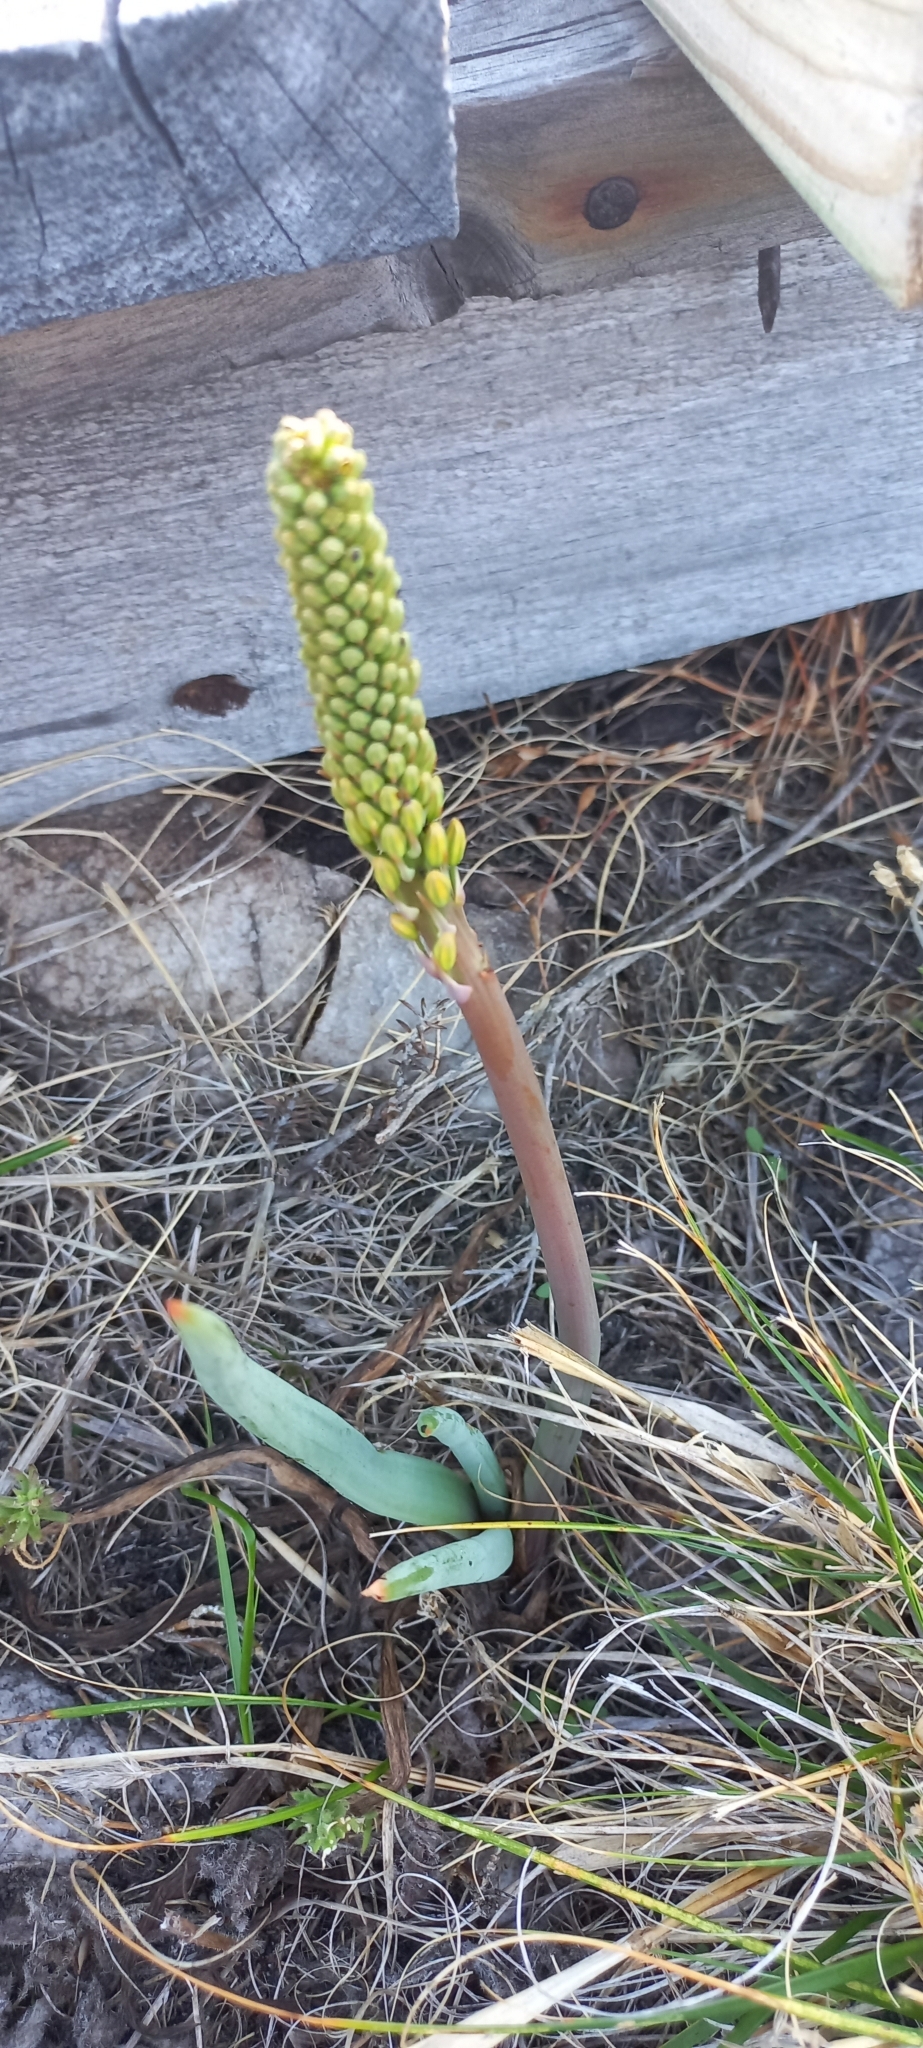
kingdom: Plantae
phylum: Tracheophyta
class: Liliopsida
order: Asparagales
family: Asphodelaceae
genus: Bulbine
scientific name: Bulbine cepacea
